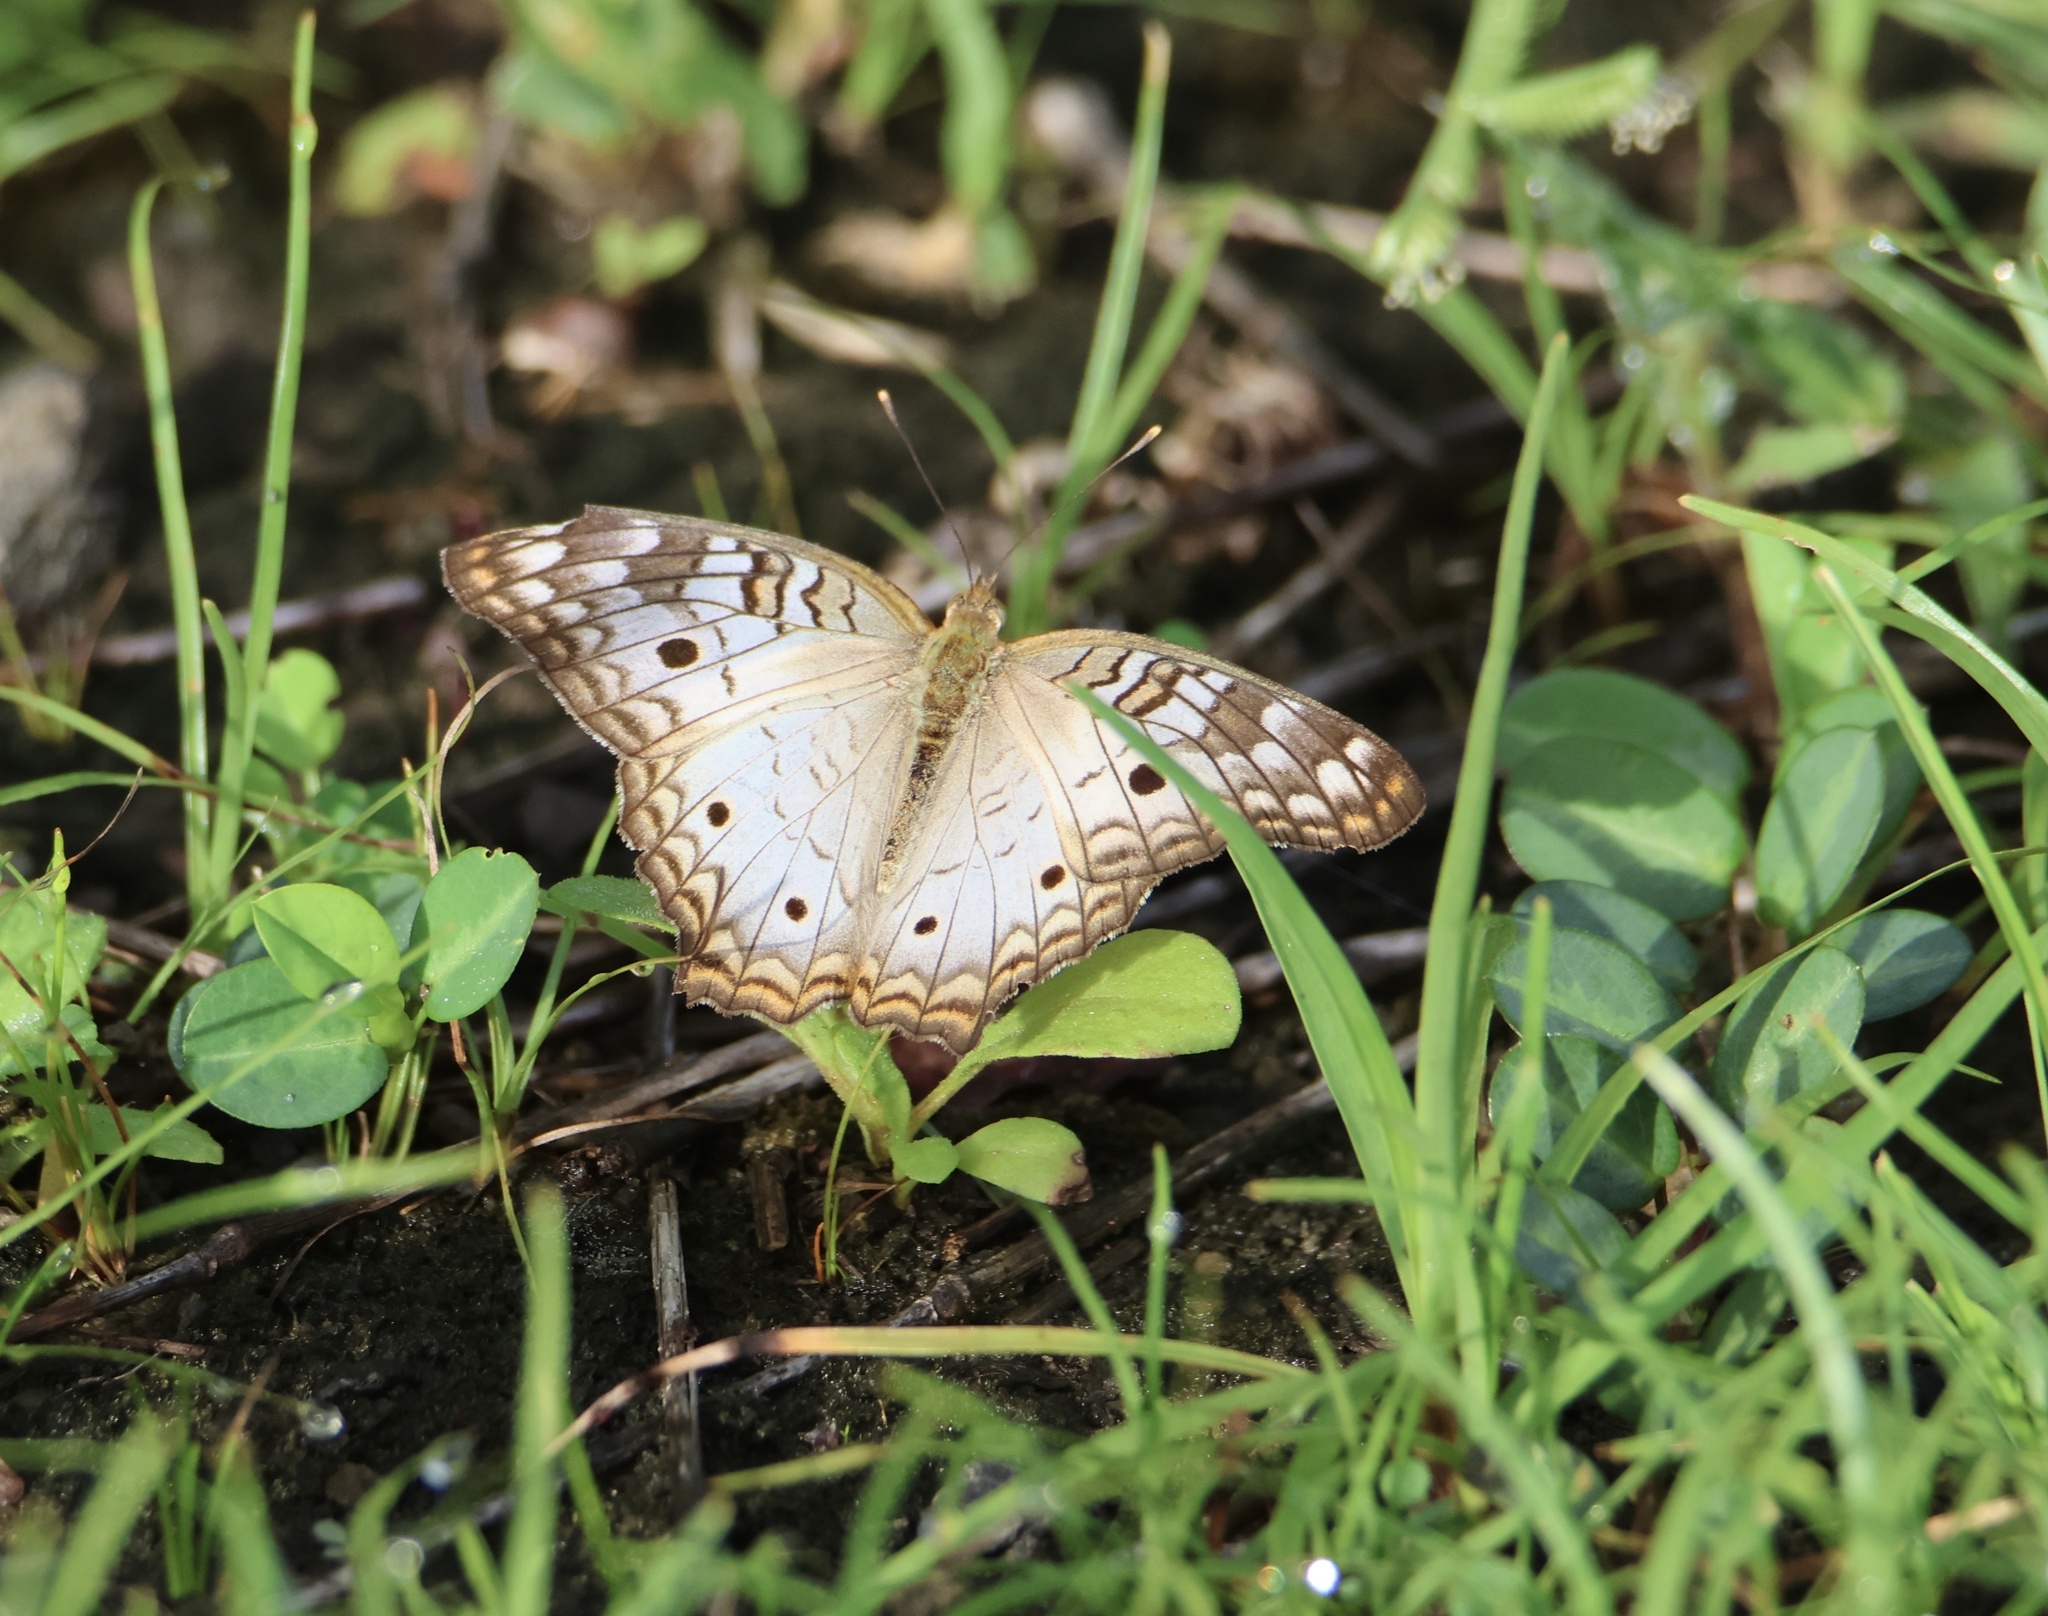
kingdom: Animalia
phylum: Arthropoda
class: Insecta
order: Lepidoptera
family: Nymphalidae
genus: Anartia
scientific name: Anartia jatrophae
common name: White peacock
